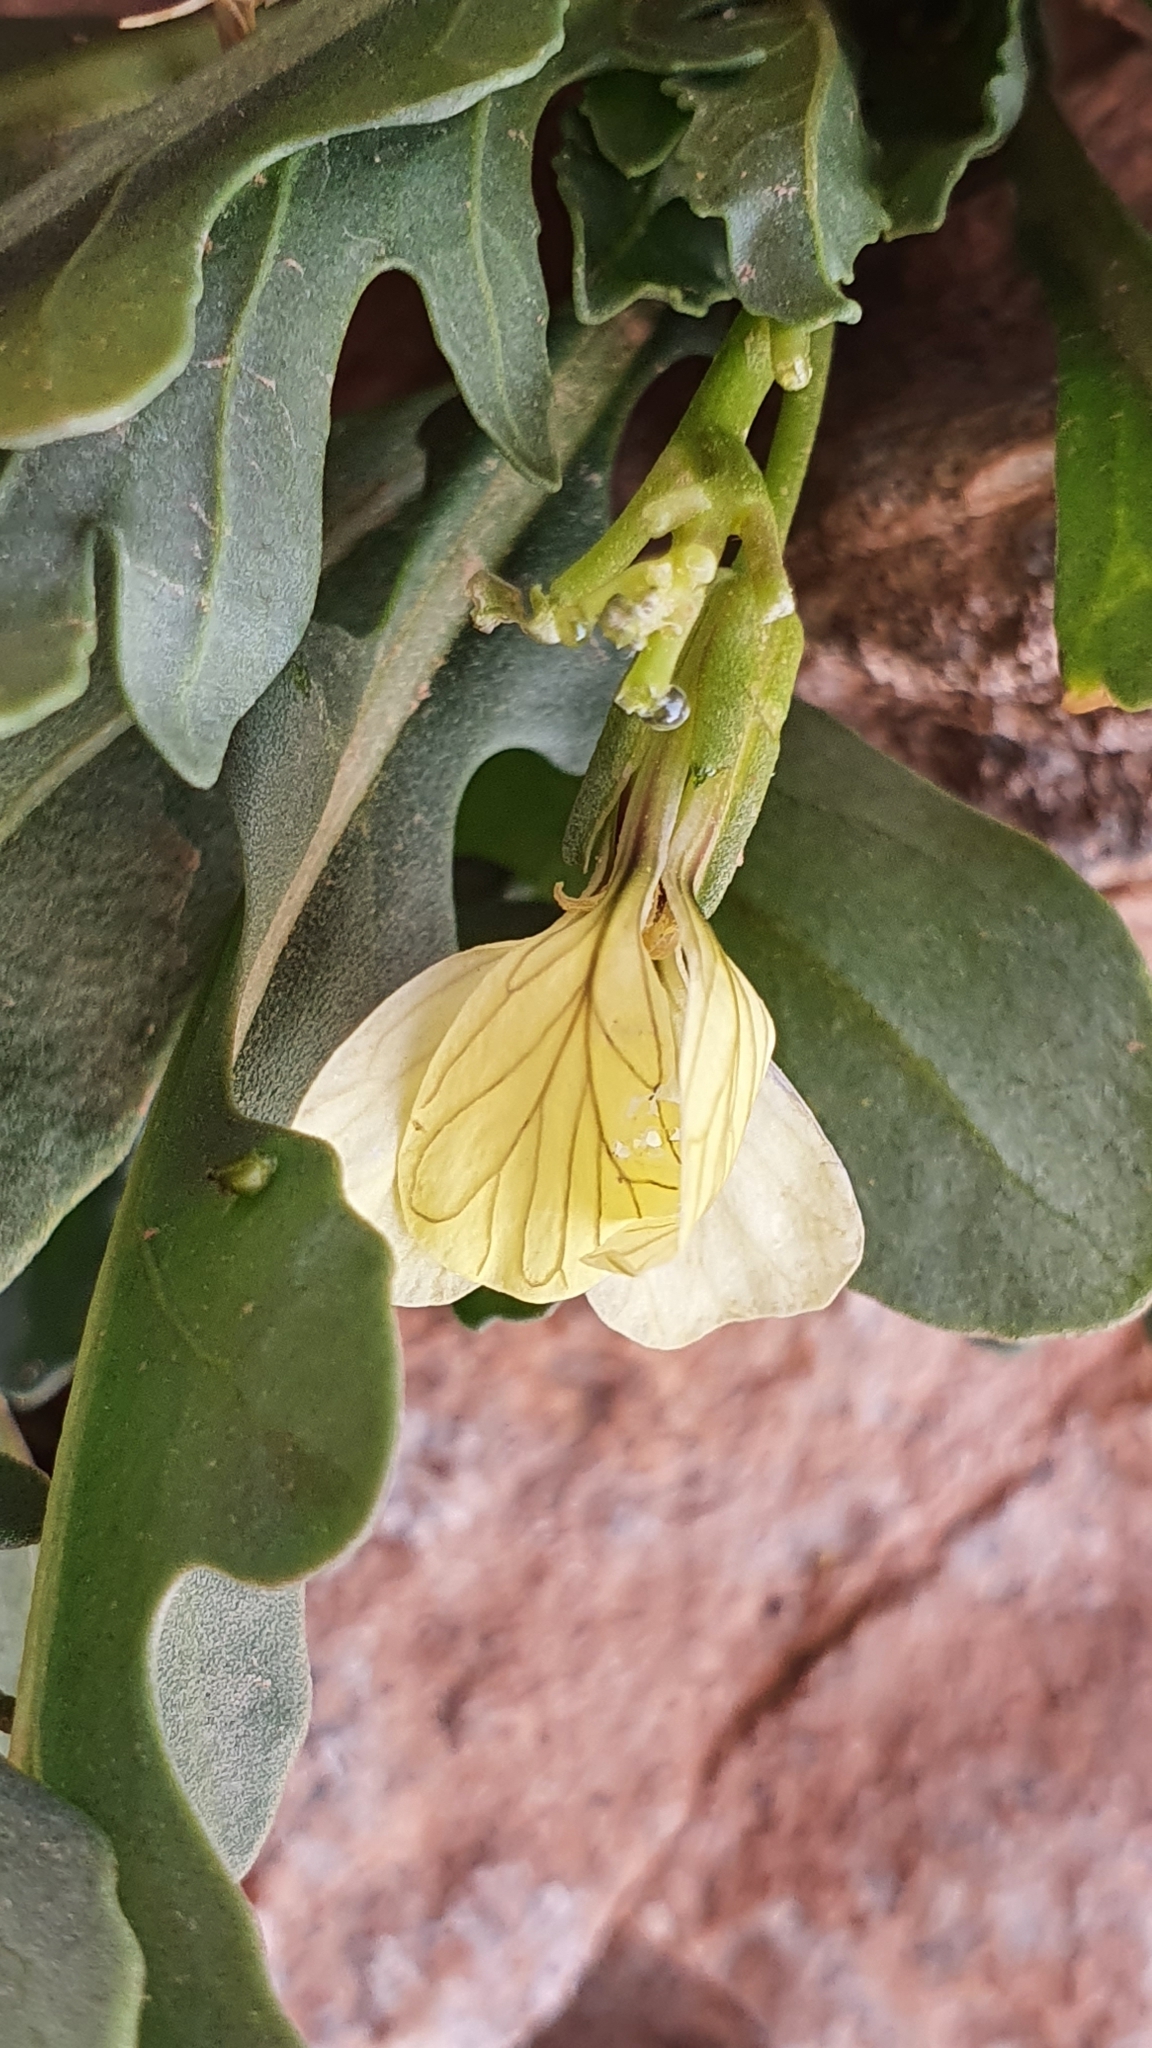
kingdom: Plantae
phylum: Tracheophyta
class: Magnoliopsida
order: Brassicales
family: Brassicaceae
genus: Eruca
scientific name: Eruca vesicaria
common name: Garden rocket
